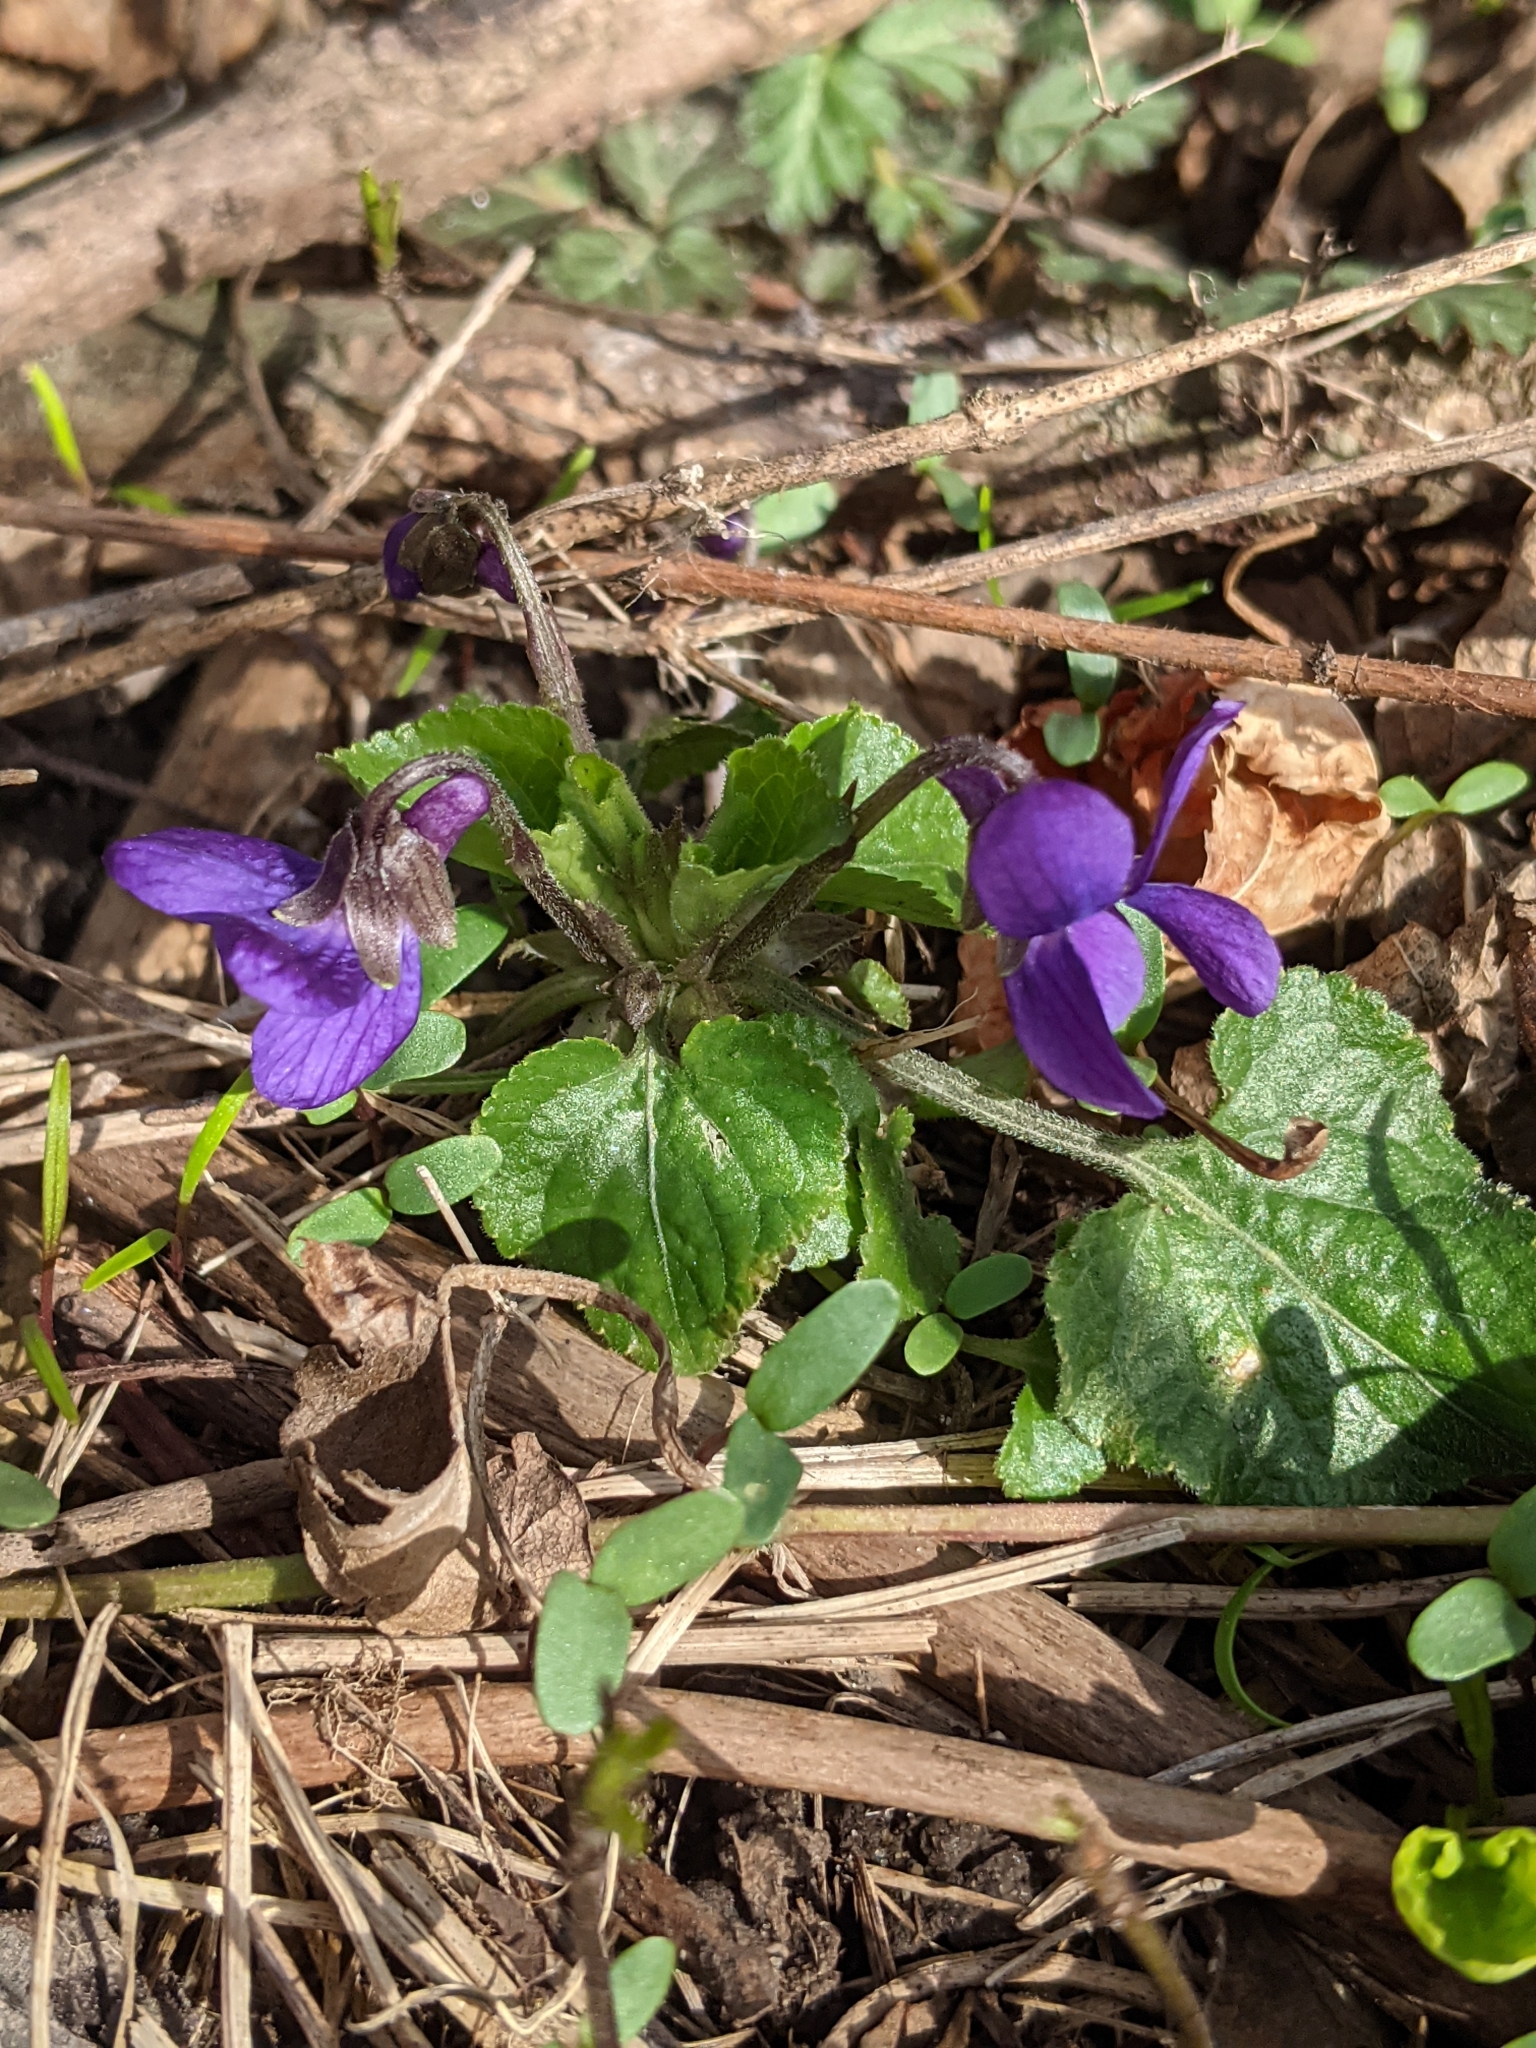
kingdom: Plantae
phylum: Tracheophyta
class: Magnoliopsida
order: Malpighiales
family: Violaceae
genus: Viola
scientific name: Viola odorata
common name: Sweet violet
